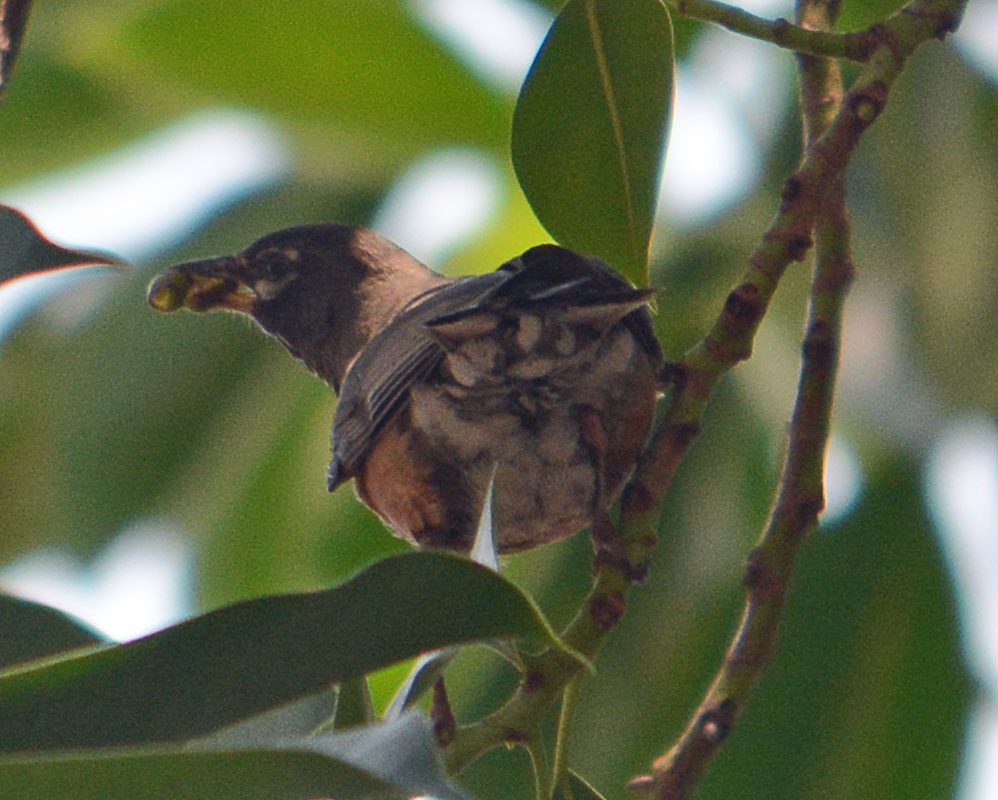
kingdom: Animalia
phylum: Chordata
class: Aves
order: Passeriformes
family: Turdidae
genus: Turdus
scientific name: Turdus migratorius
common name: American robin
